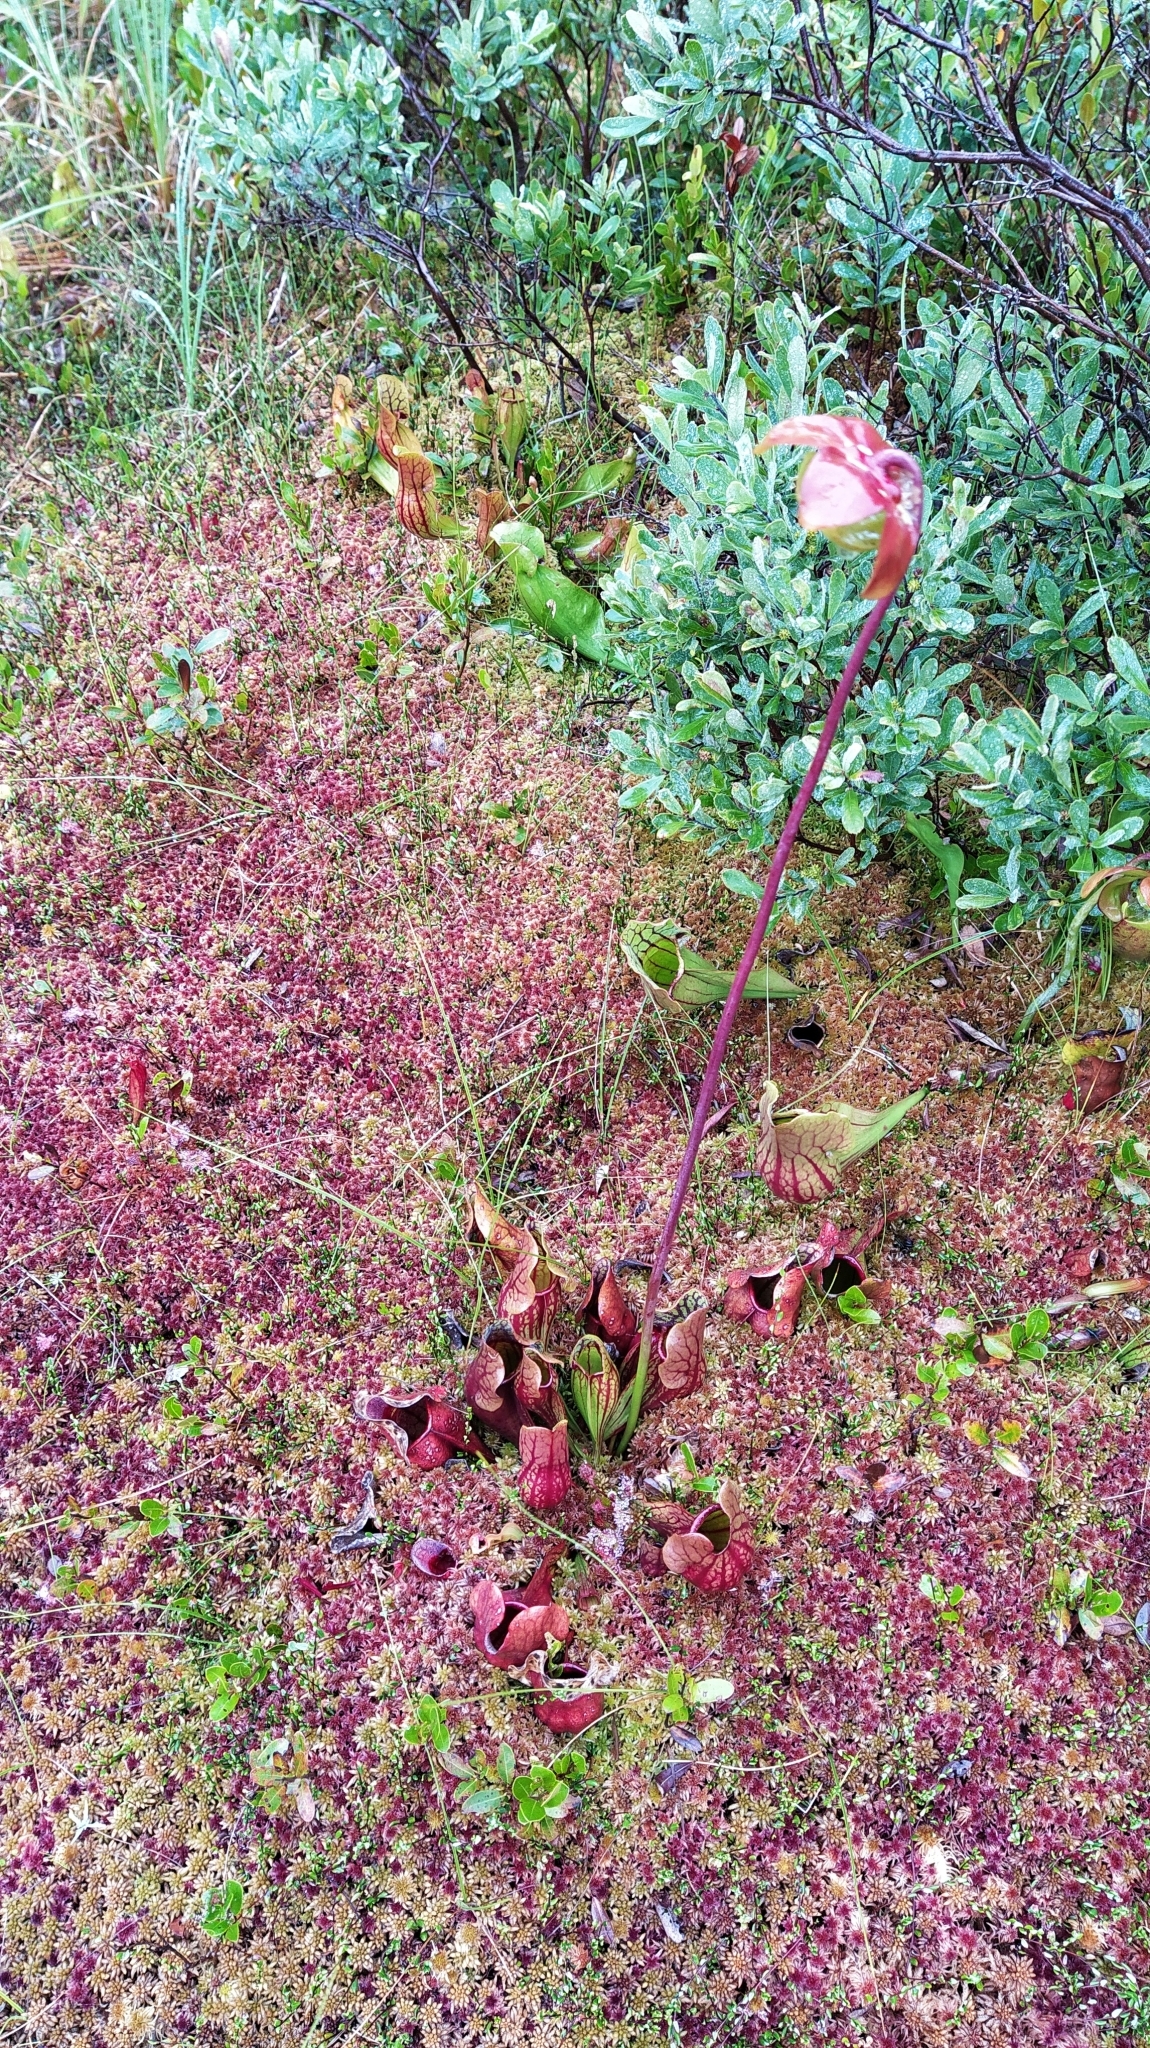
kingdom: Plantae
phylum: Tracheophyta
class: Magnoliopsida
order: Ericales
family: Sarraceniaceae
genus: Sarracenia
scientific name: Sarracenia purpurea
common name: Pitcherplant
